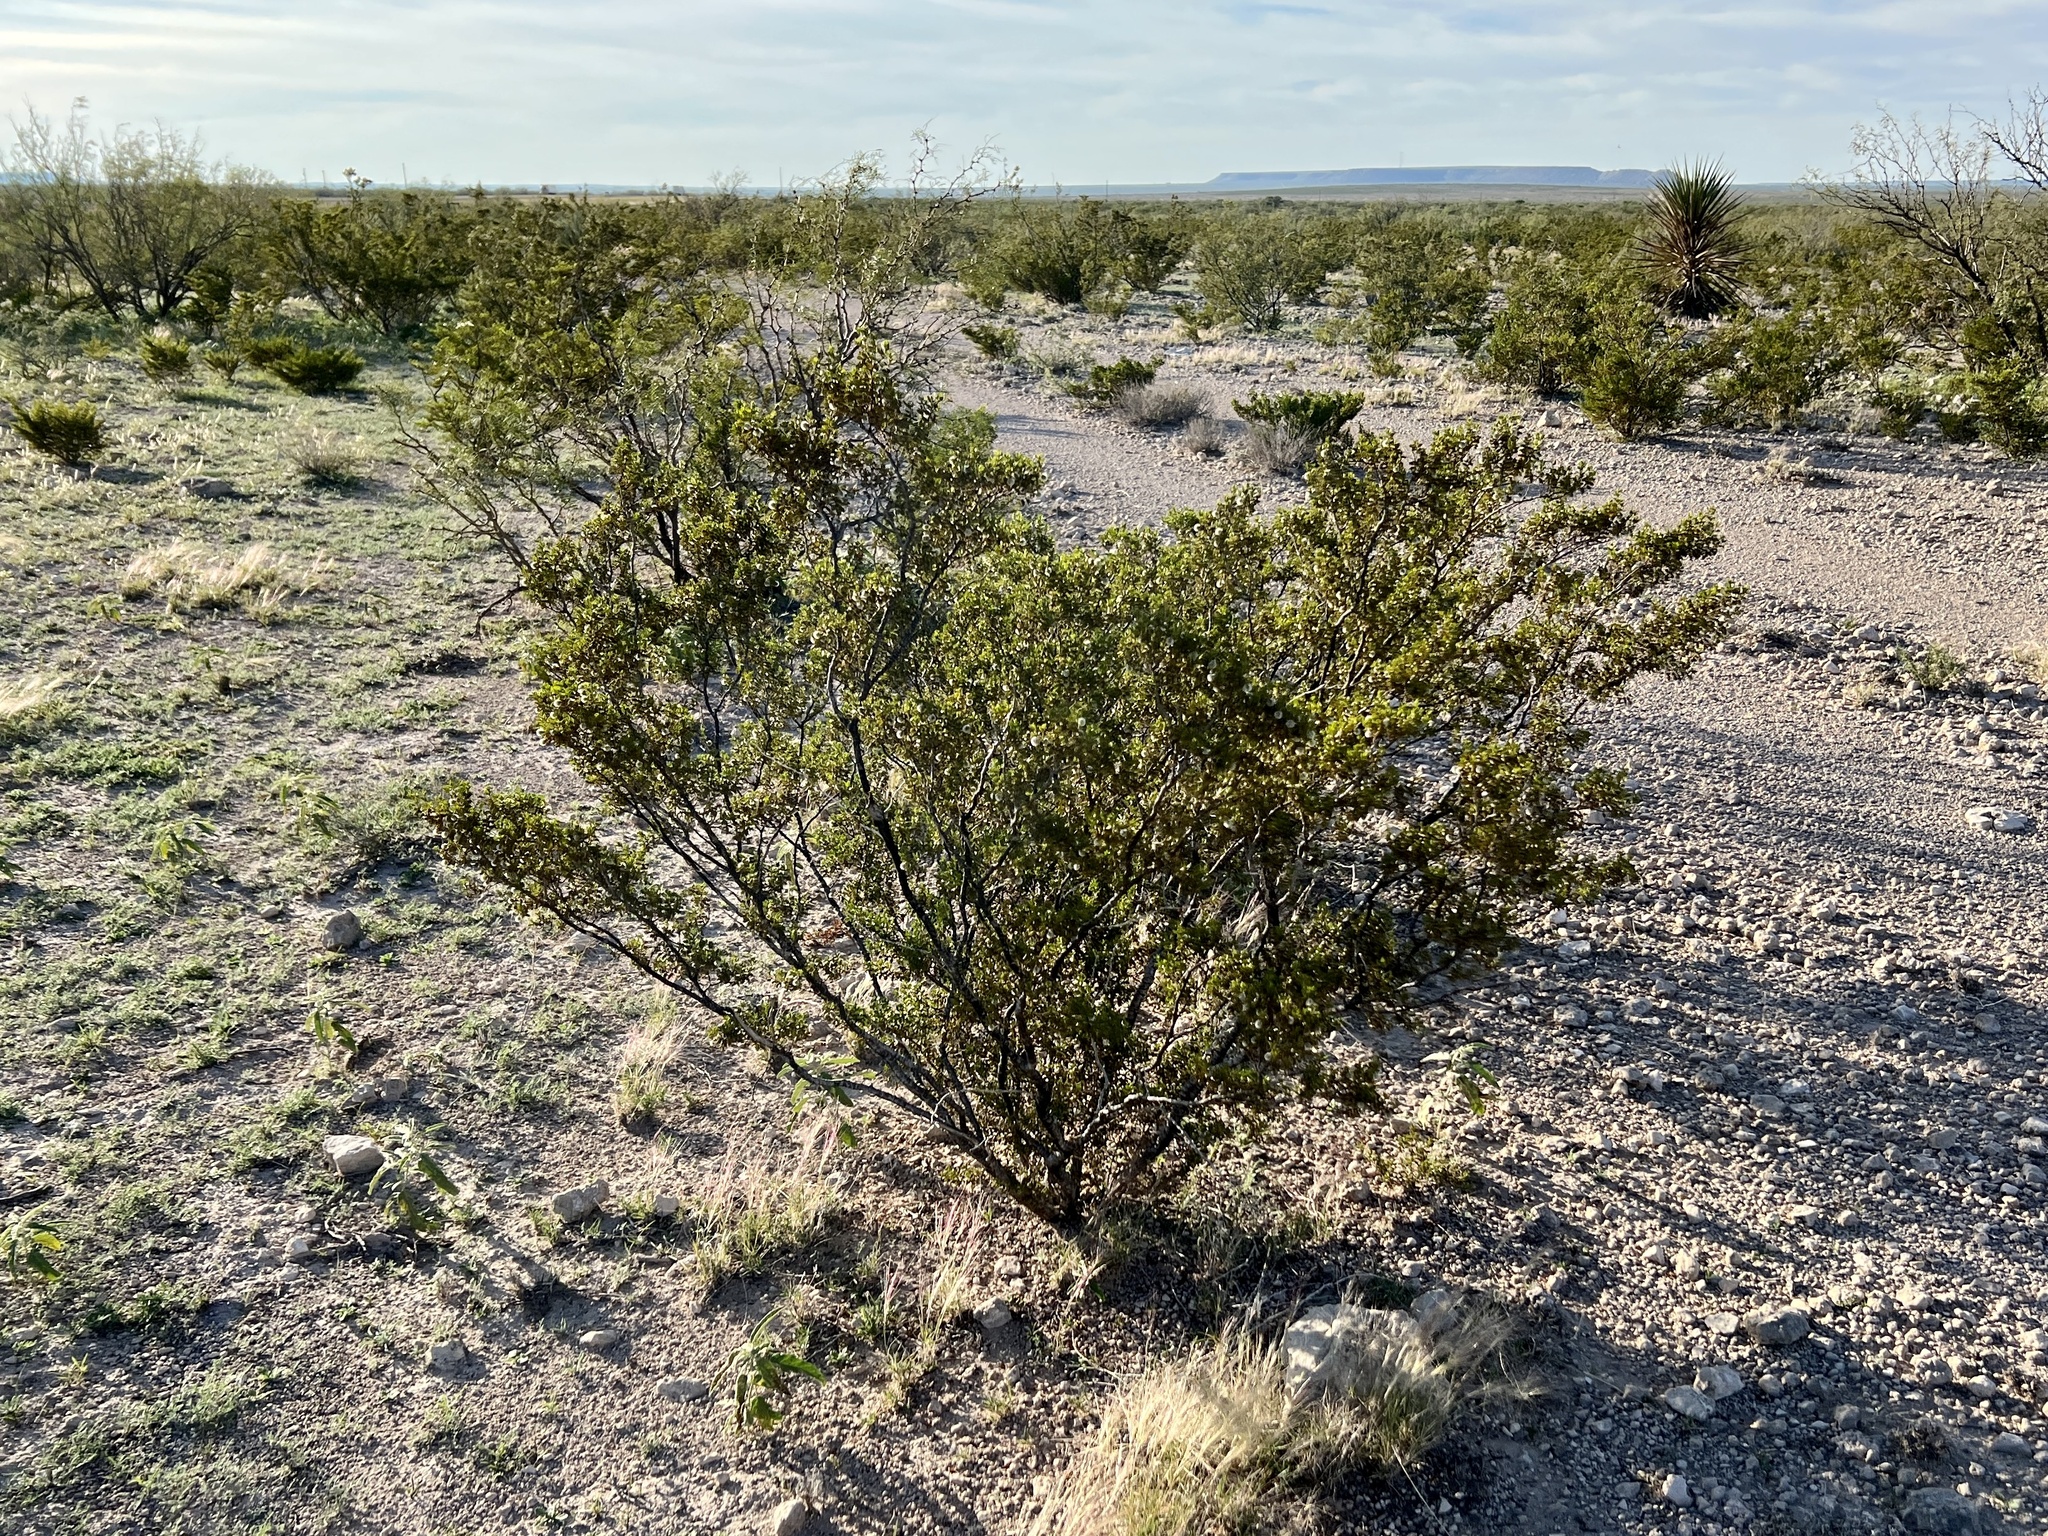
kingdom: Plantae
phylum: Tracheophyta
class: Magnoliopsida
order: Zygophyllales
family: Zygophyllaceae
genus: Larrea
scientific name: Larrea tridentata
